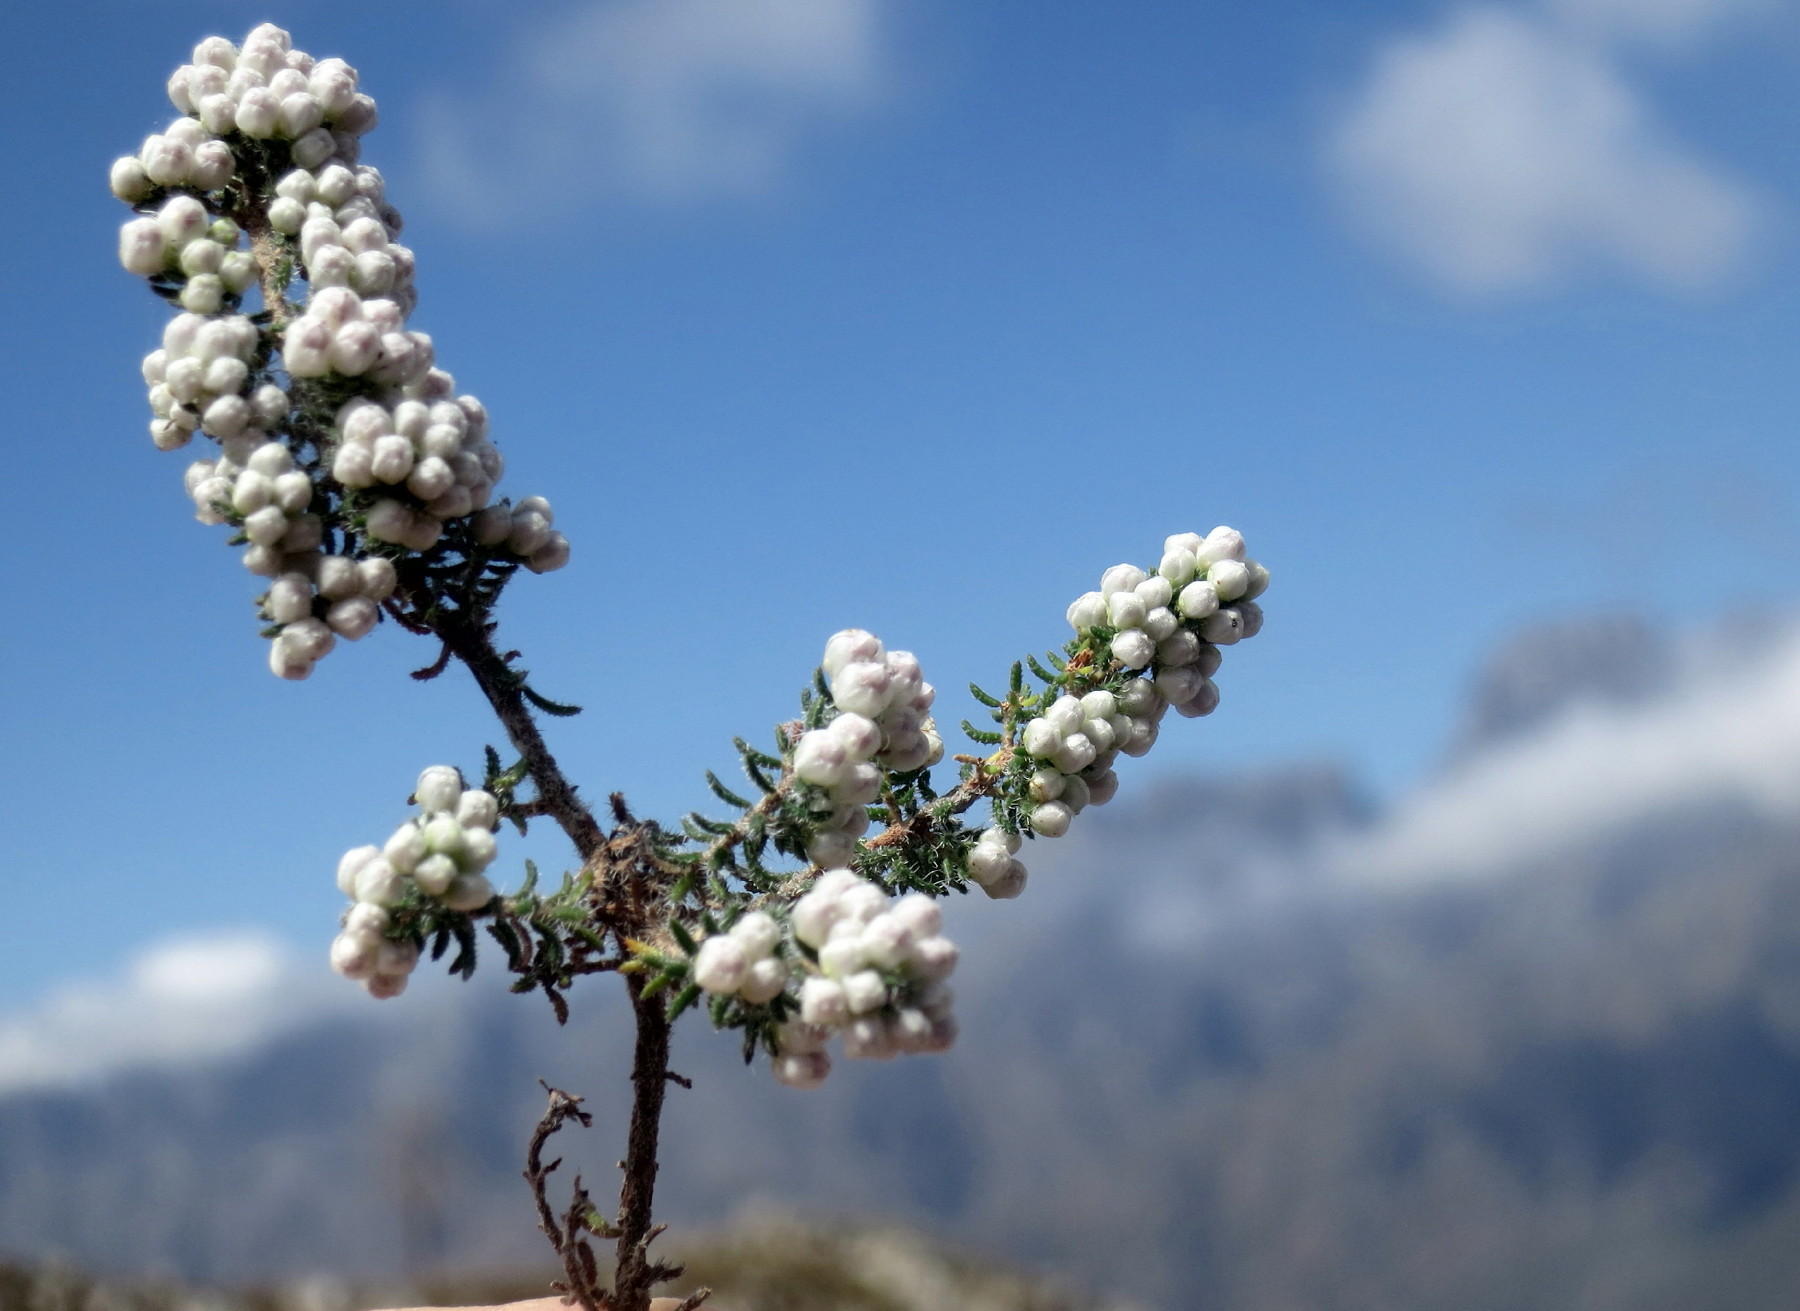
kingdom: Plantae
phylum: Tracheophyta
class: Magnoliopsida
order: Ericales
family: Ericaceae
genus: Erica
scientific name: Erica totta
